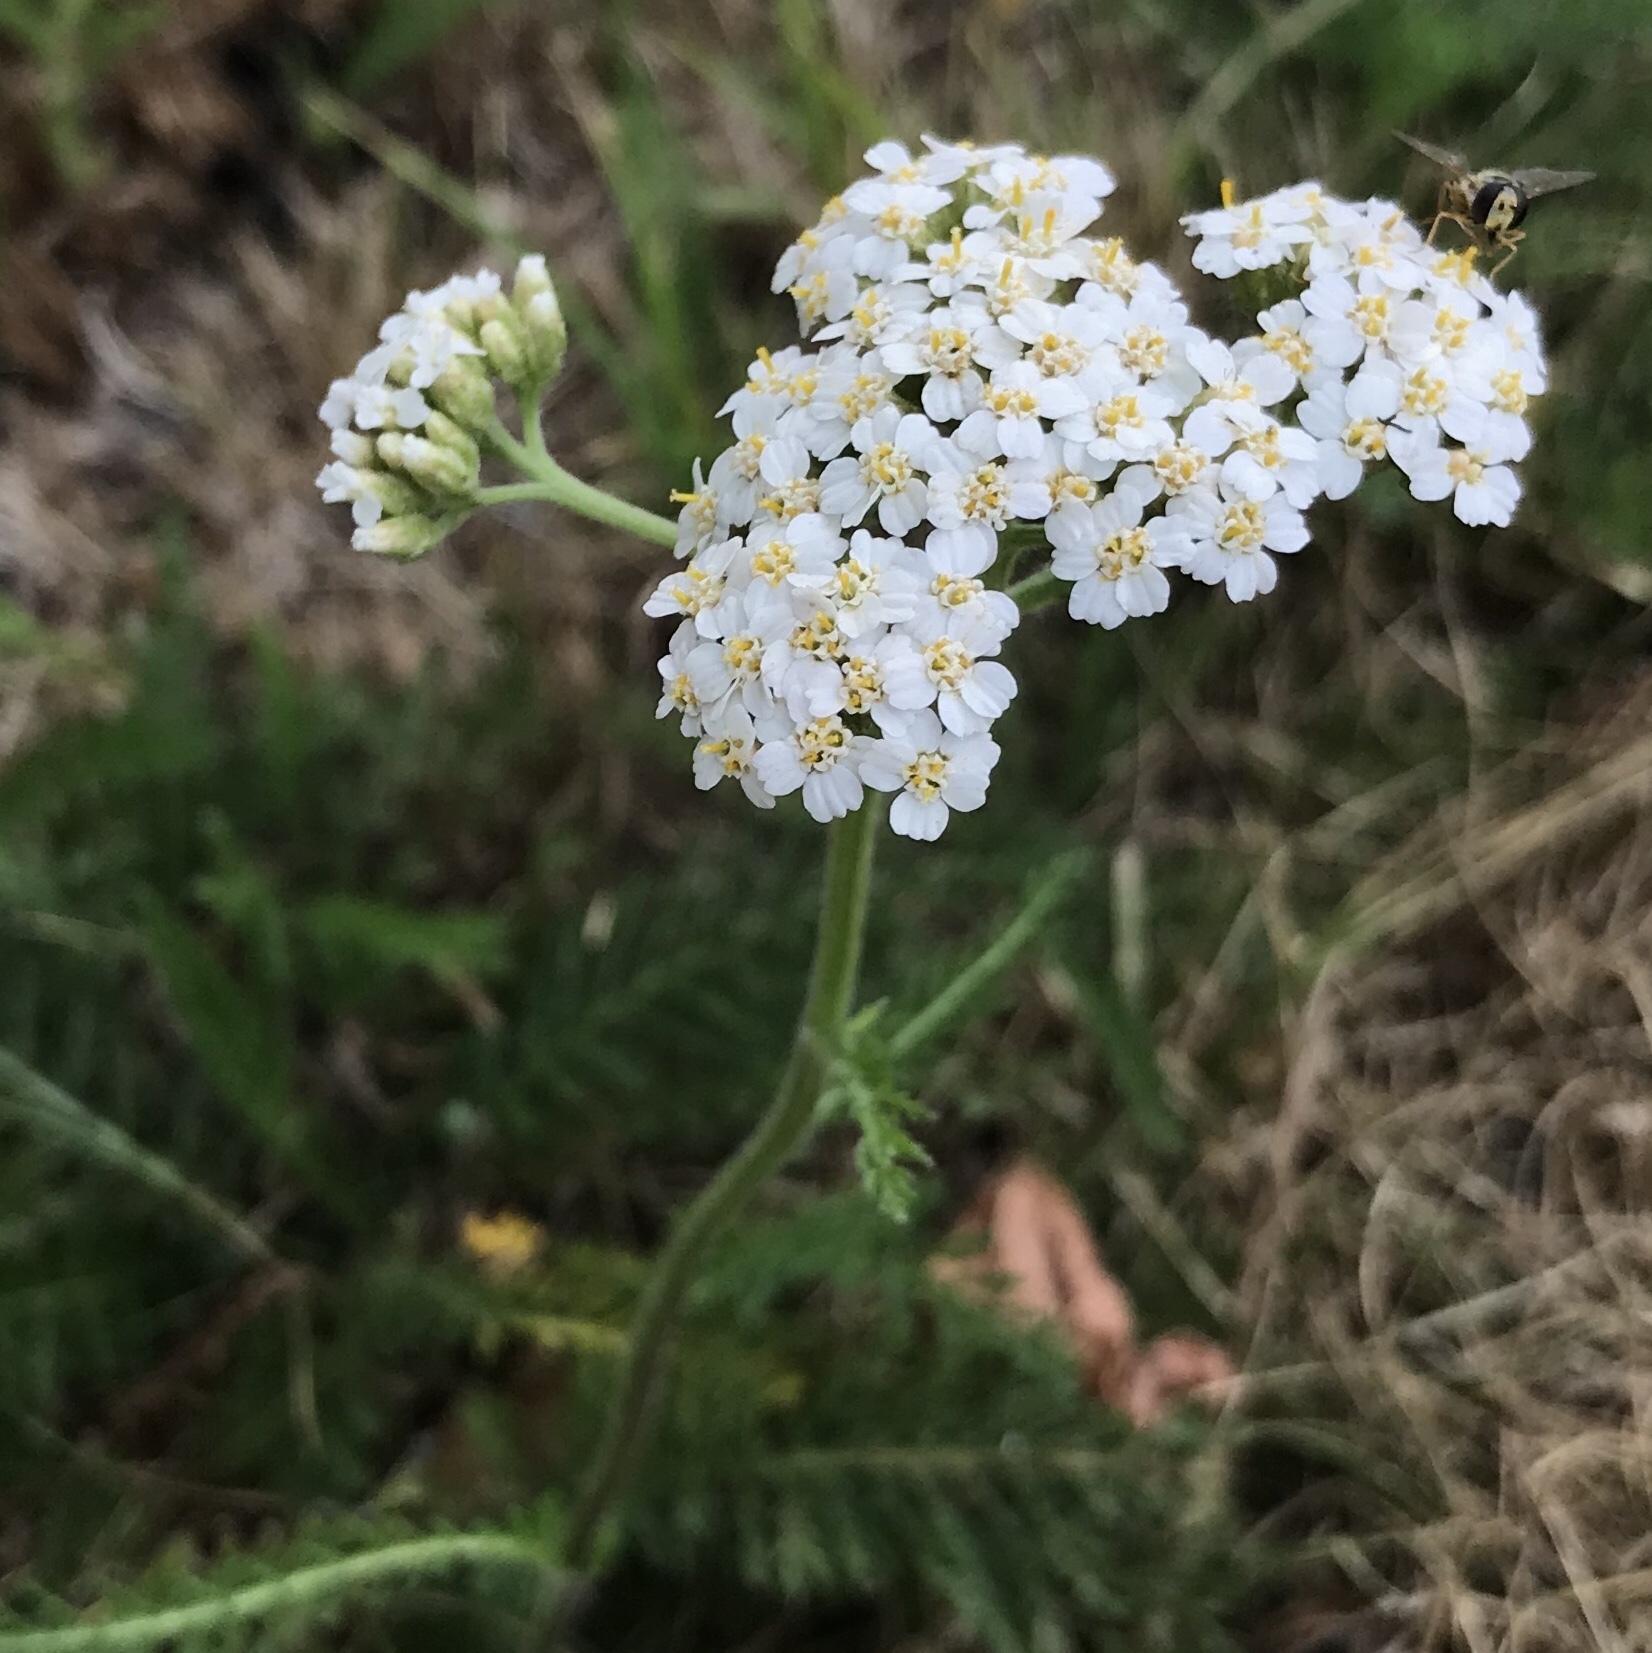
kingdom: Plantae
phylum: Tracheophyta
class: Magnoliopsida
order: Asterales
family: Asteraceae
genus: Achillea
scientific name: Achillea millefolium
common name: Yarrow
